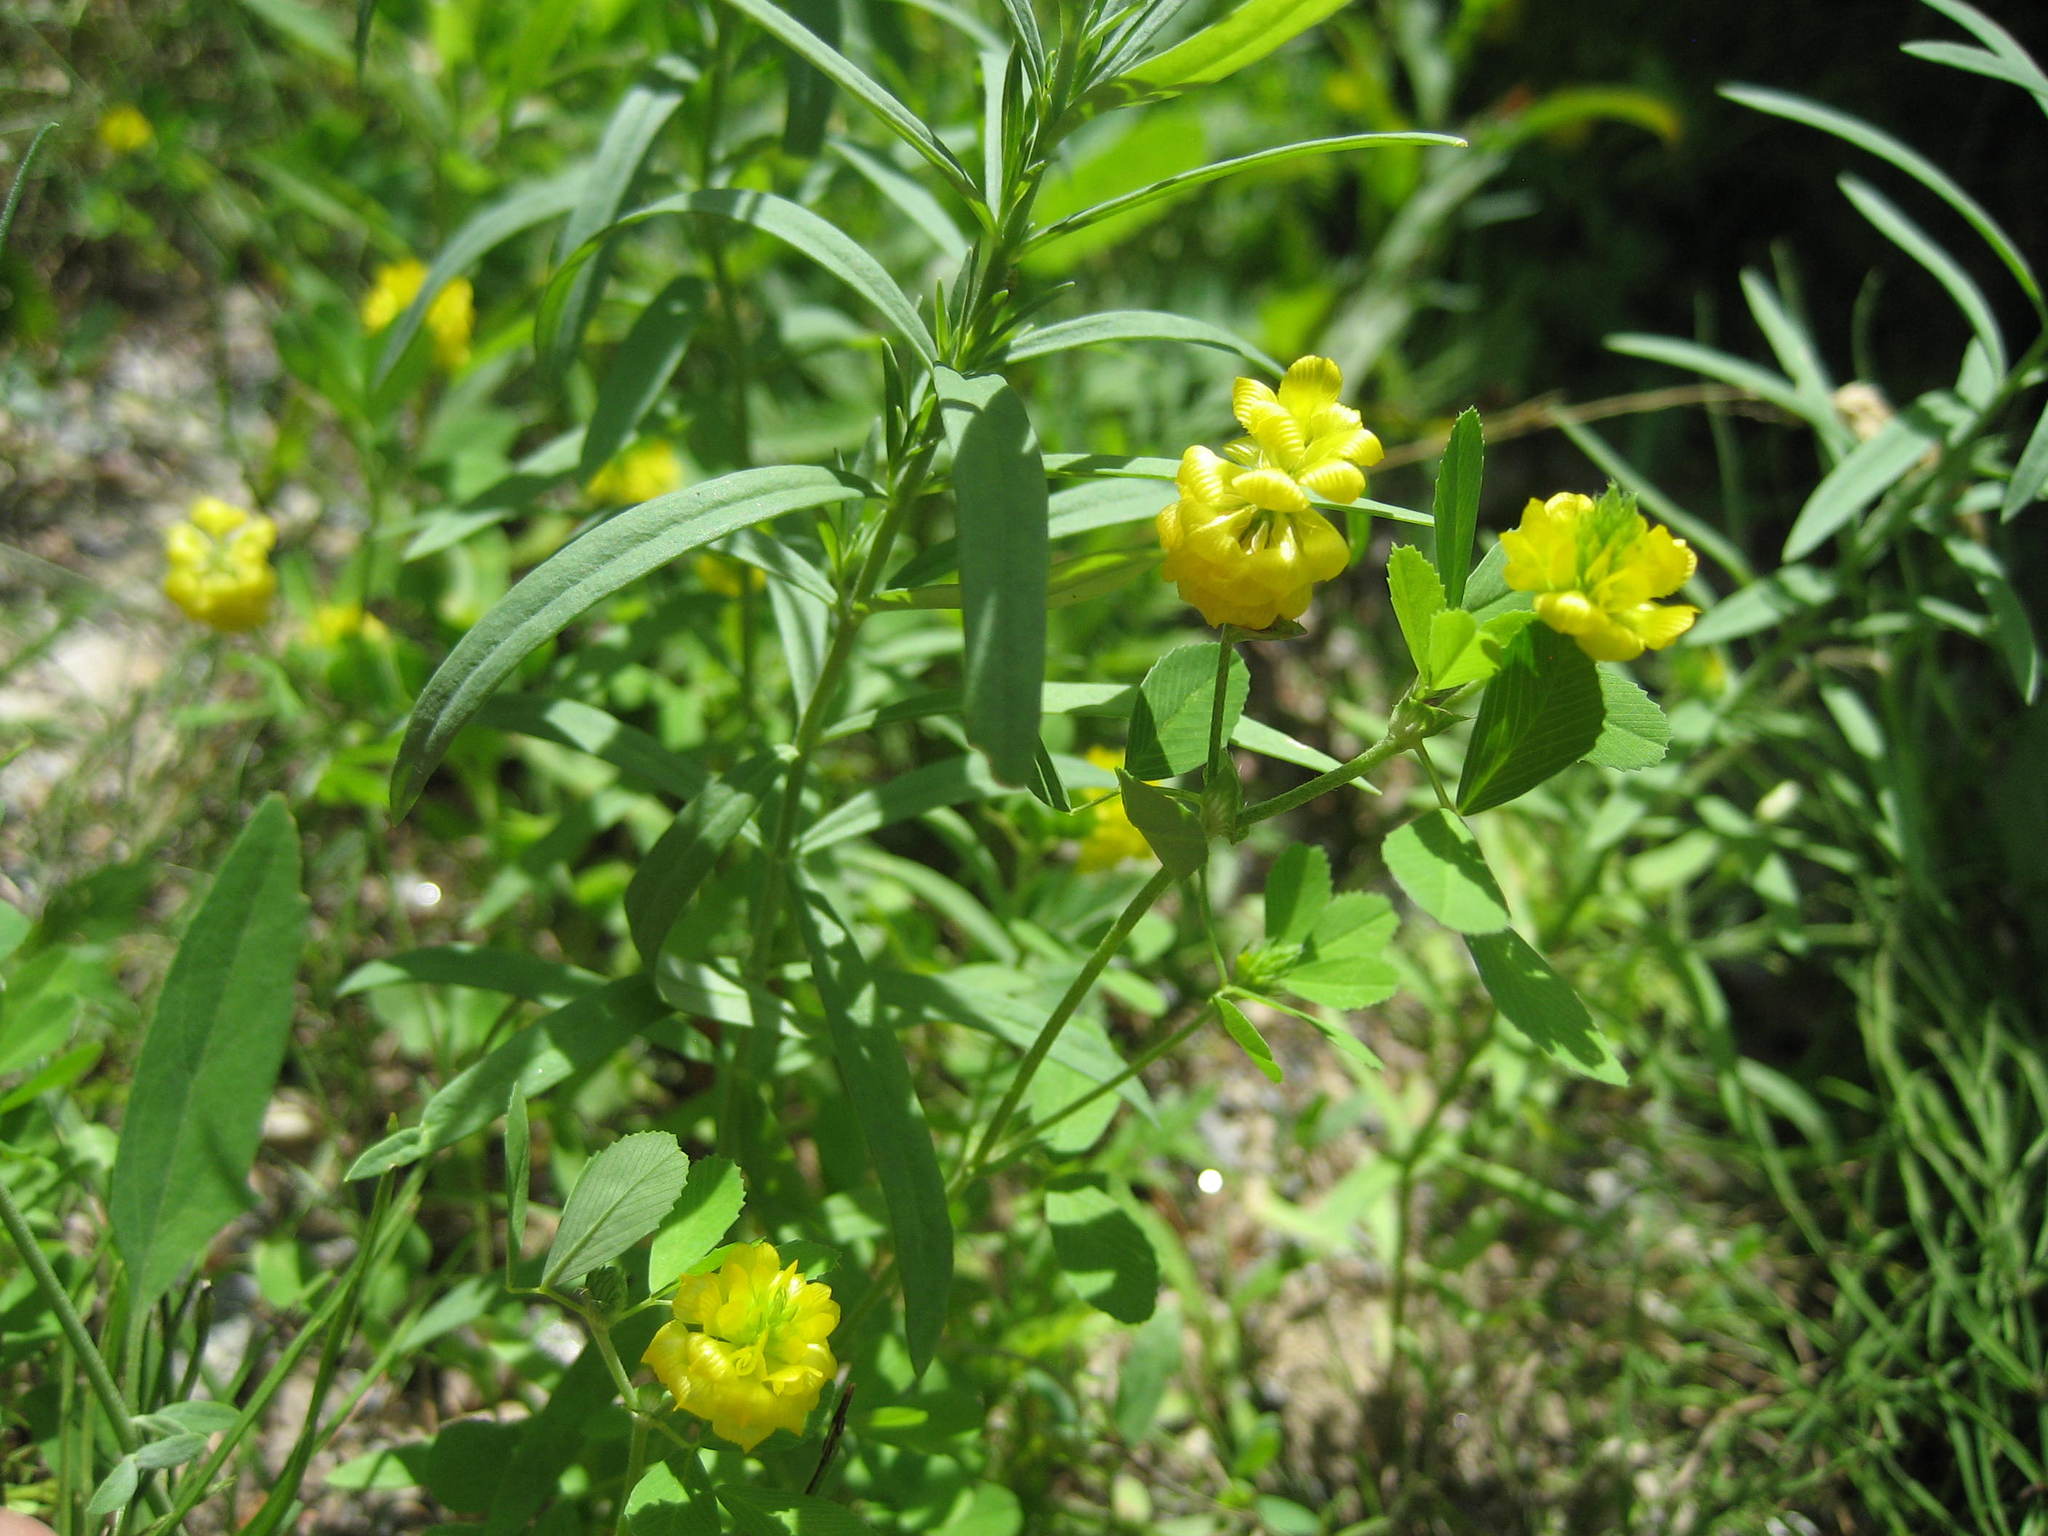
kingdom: Plantae
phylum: Tracheophyta
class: Magnoliopsida
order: Fabales
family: Fabaceae
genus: Trifolium
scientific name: Trifolium campestre
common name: Field clover
